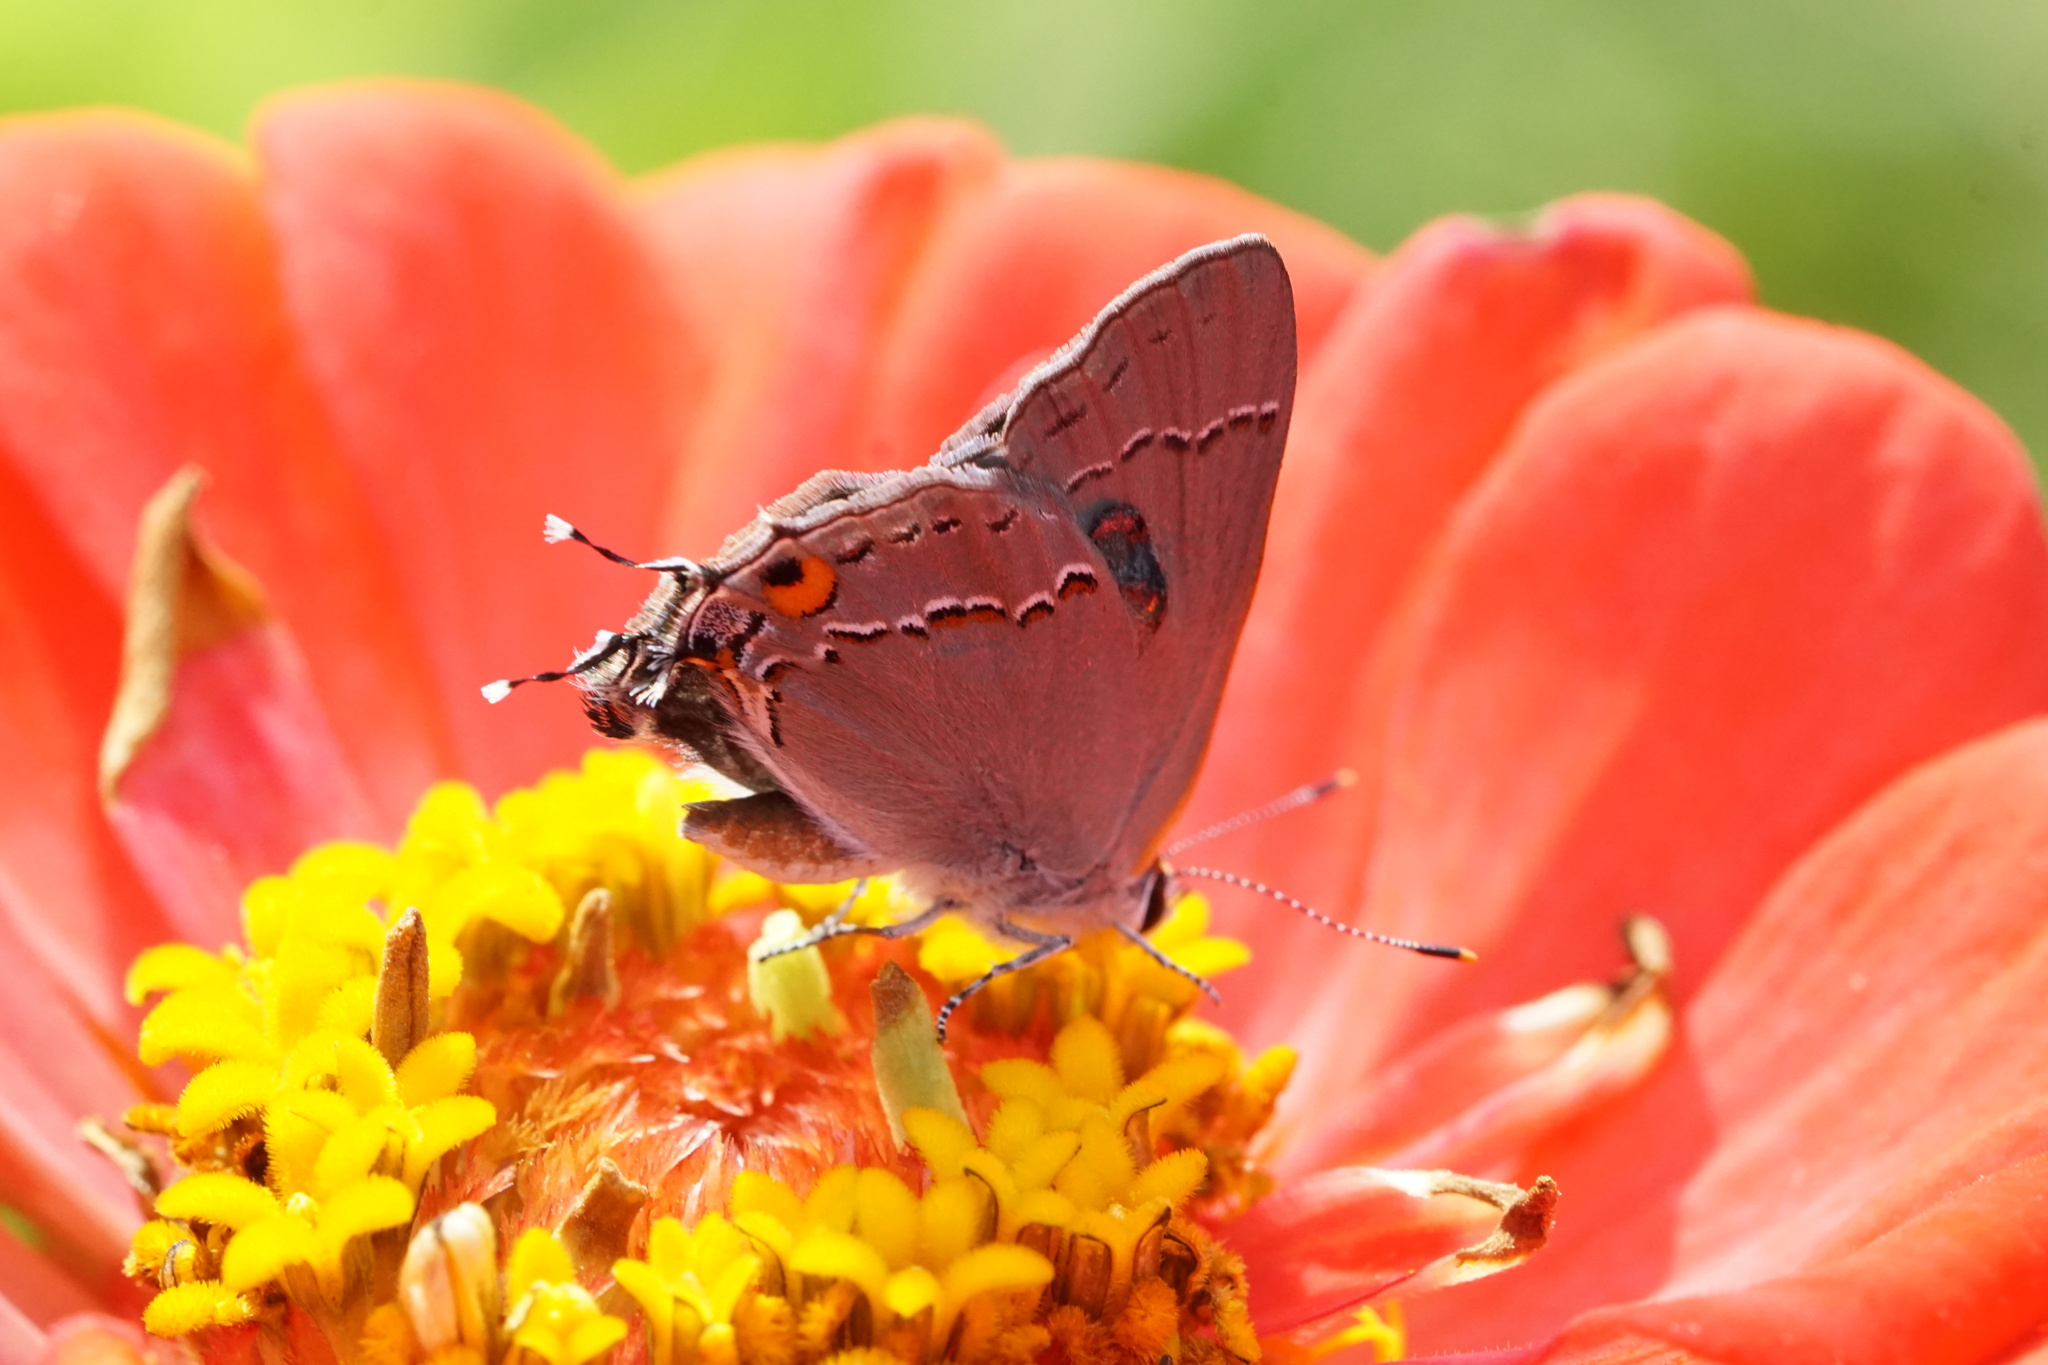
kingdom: Animalia
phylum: Arthropoda
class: Insecta
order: Lepidoptera
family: Lycaenidae
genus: Strymon
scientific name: Strymon melinus
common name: Gray hairstreak
